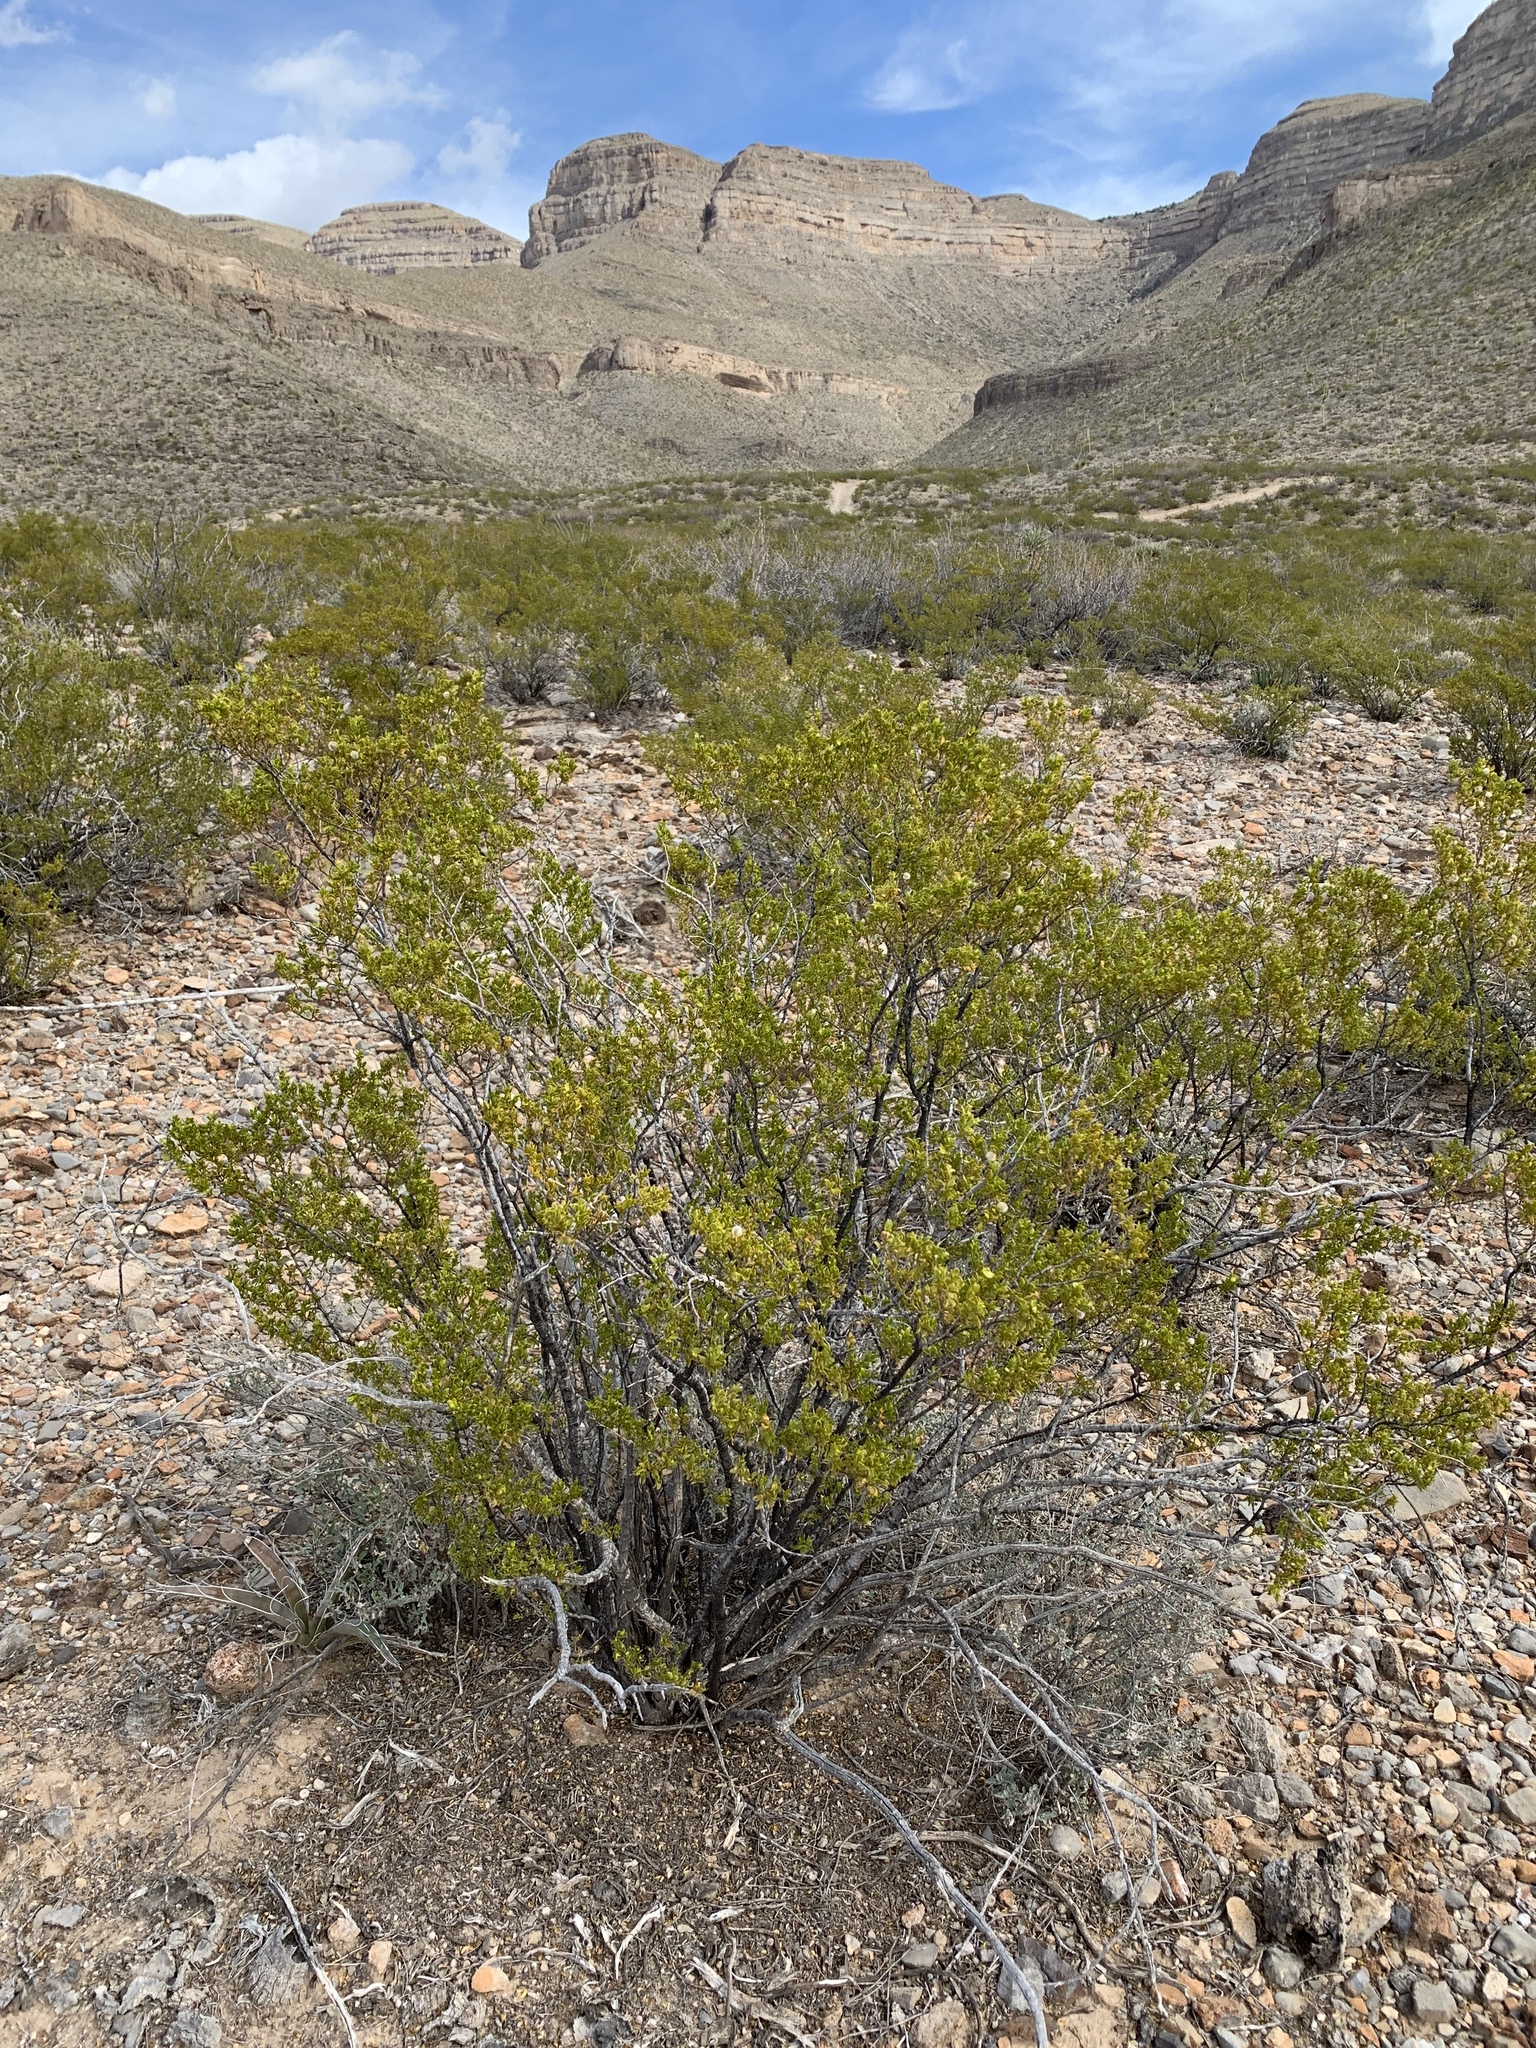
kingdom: Plantae
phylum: Tracheophyta
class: Magnoliopsida
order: Zygophyllales
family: Zygophyllaceae
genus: Larrea
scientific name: Larrea tridentata
